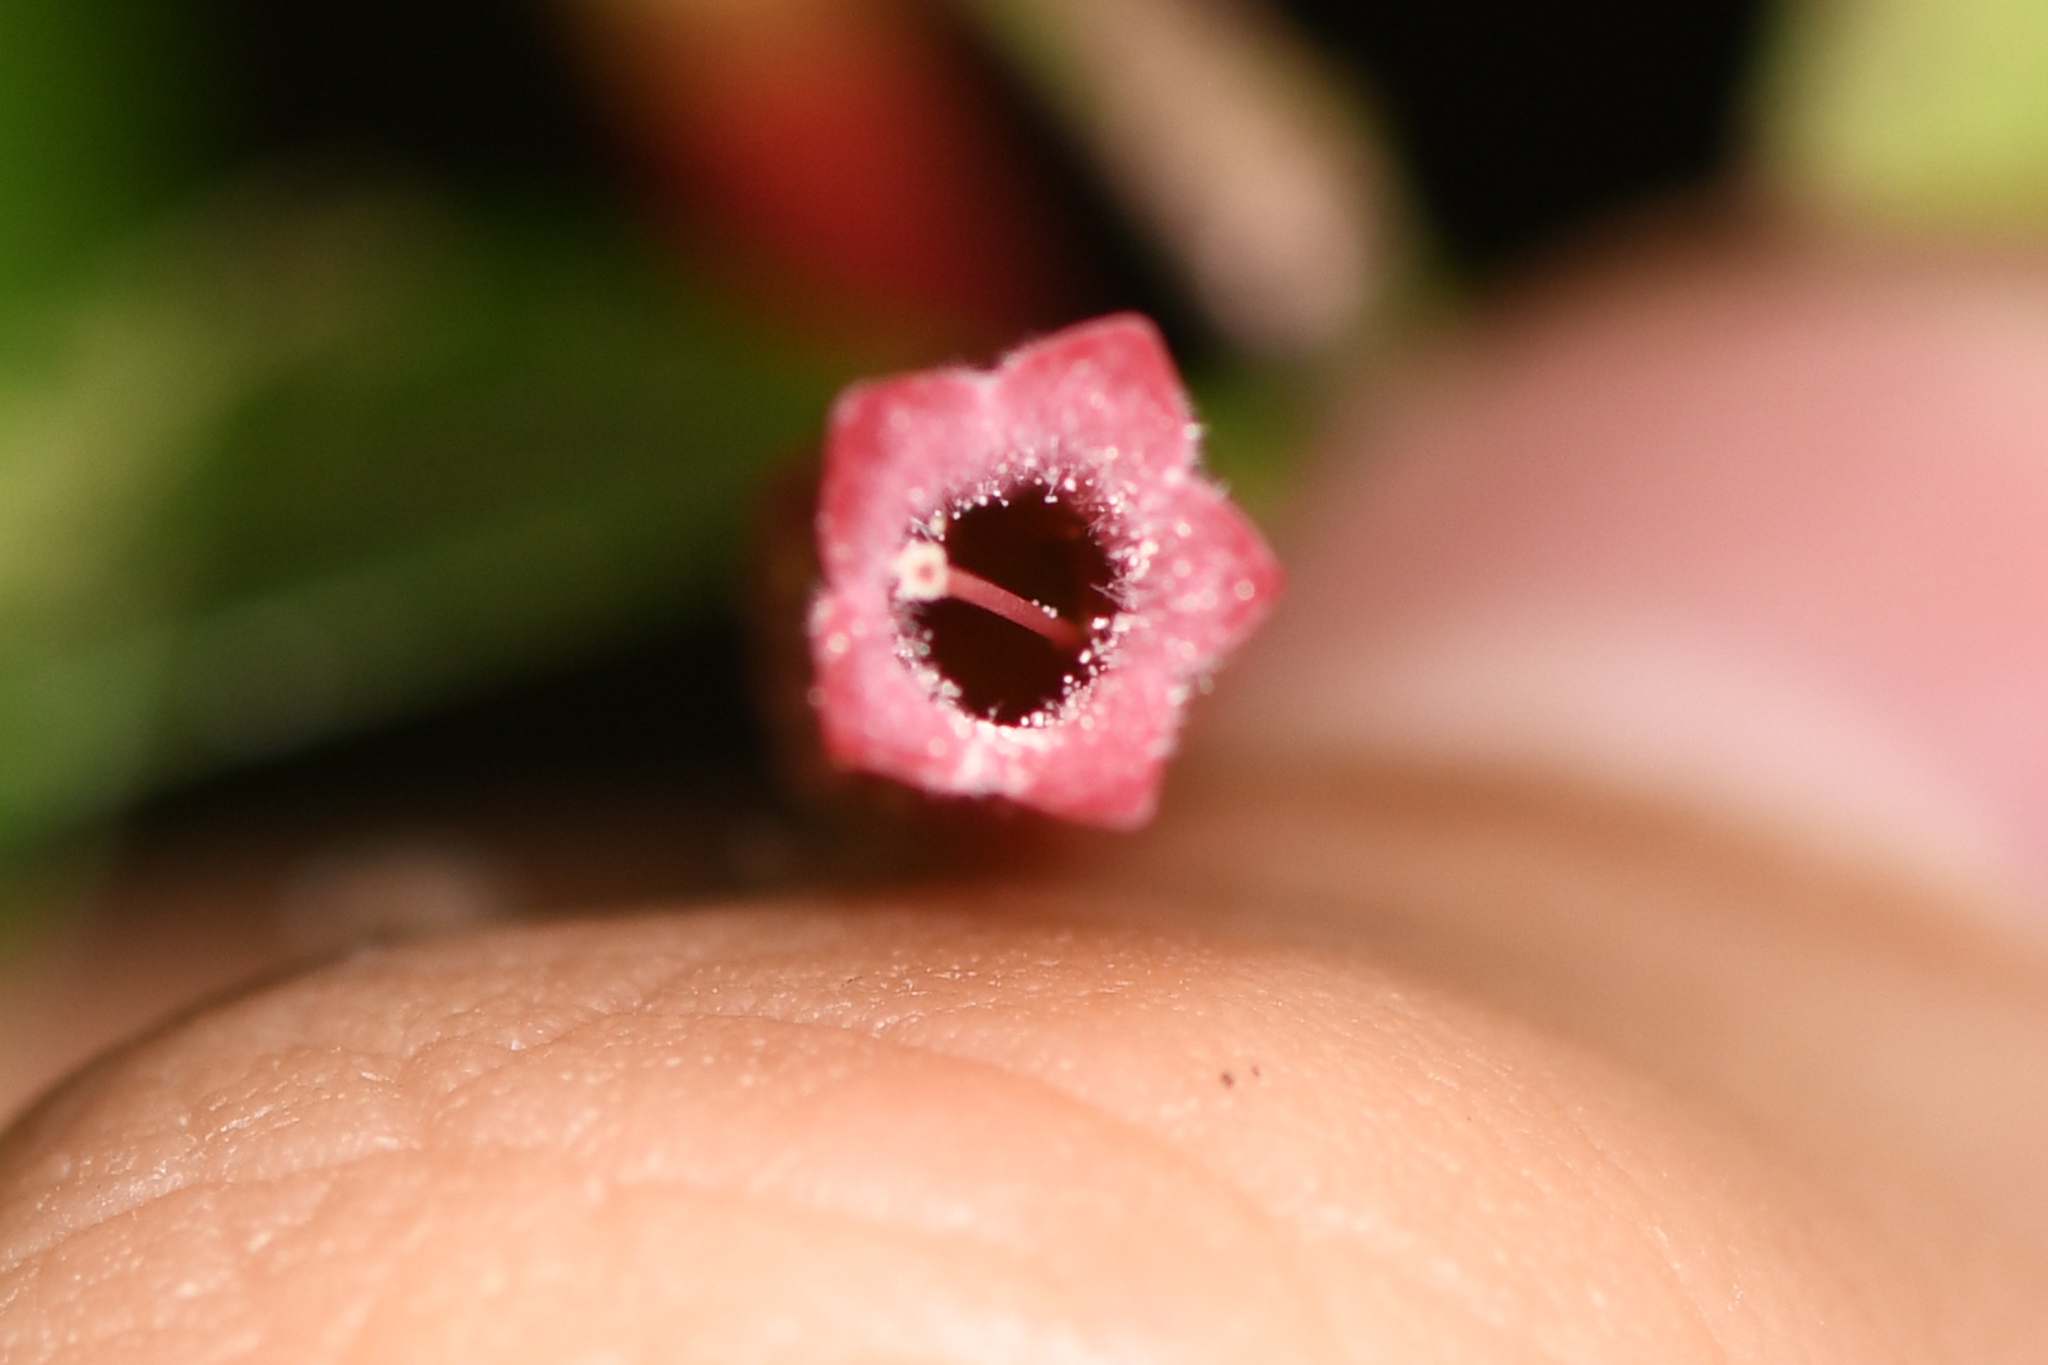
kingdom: Plantae
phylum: Tracheophyta
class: Magnoliopsida
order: Ericales
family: Ericaceae
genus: Gonocalyx
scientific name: Gonocalyx pterocarpus
